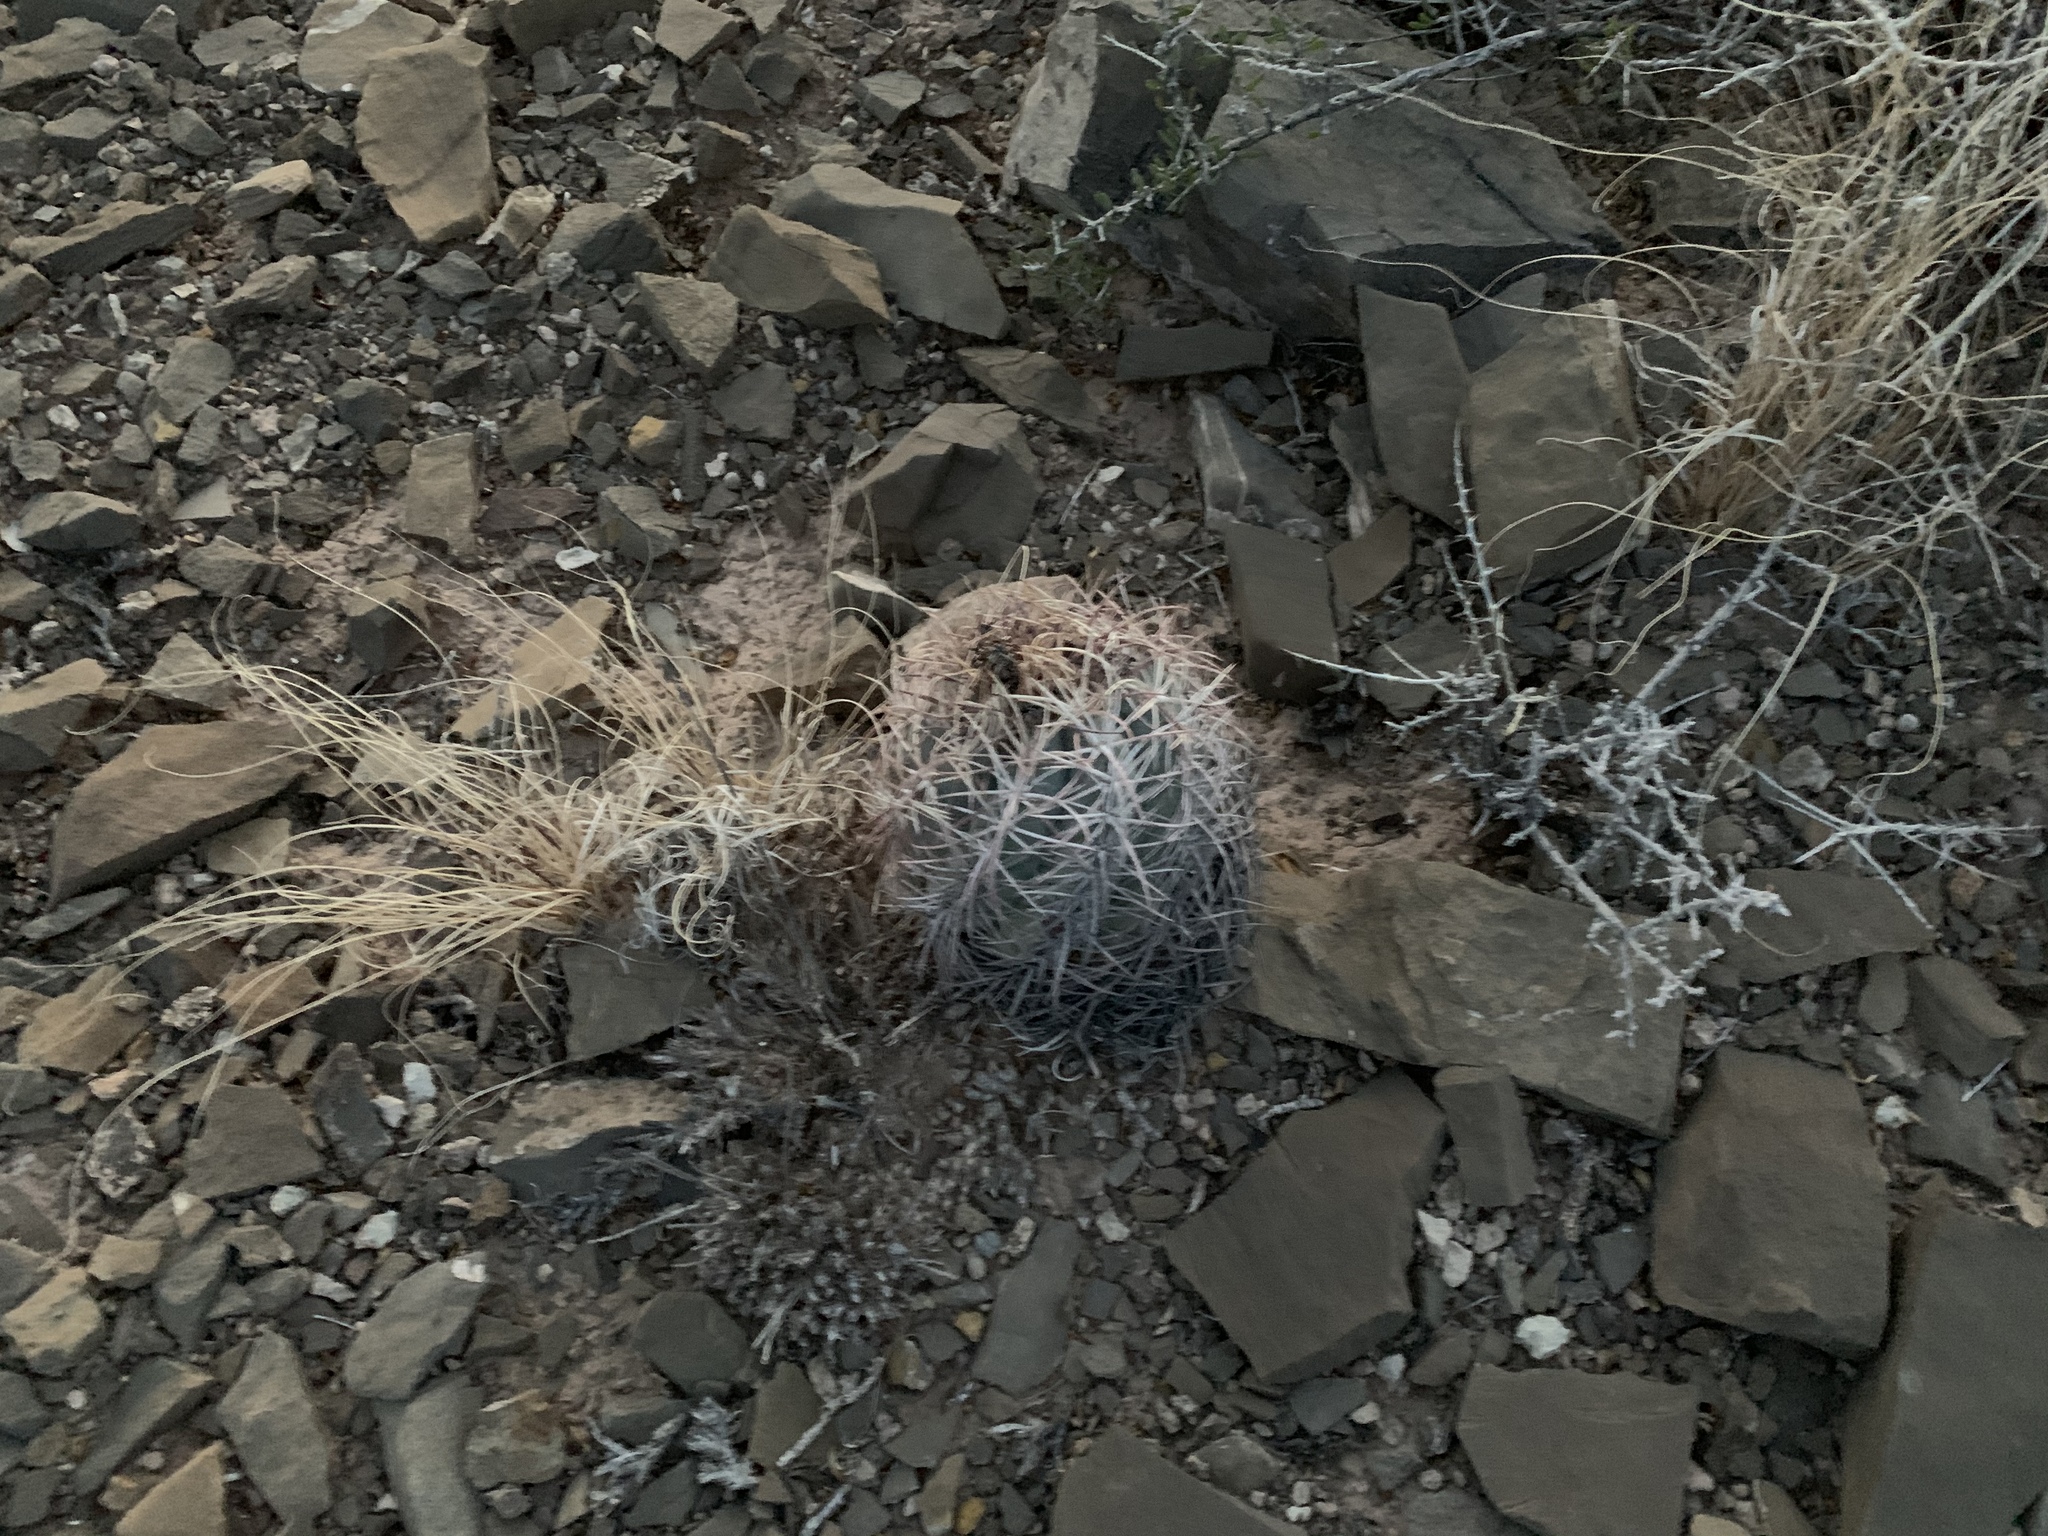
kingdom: Plantae
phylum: Tracheophyta
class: Magnoliopsida
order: Caryophyllales
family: Cactaceae
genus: Echinocactus
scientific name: Echinocactus horizonthalonius
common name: Devilshead
